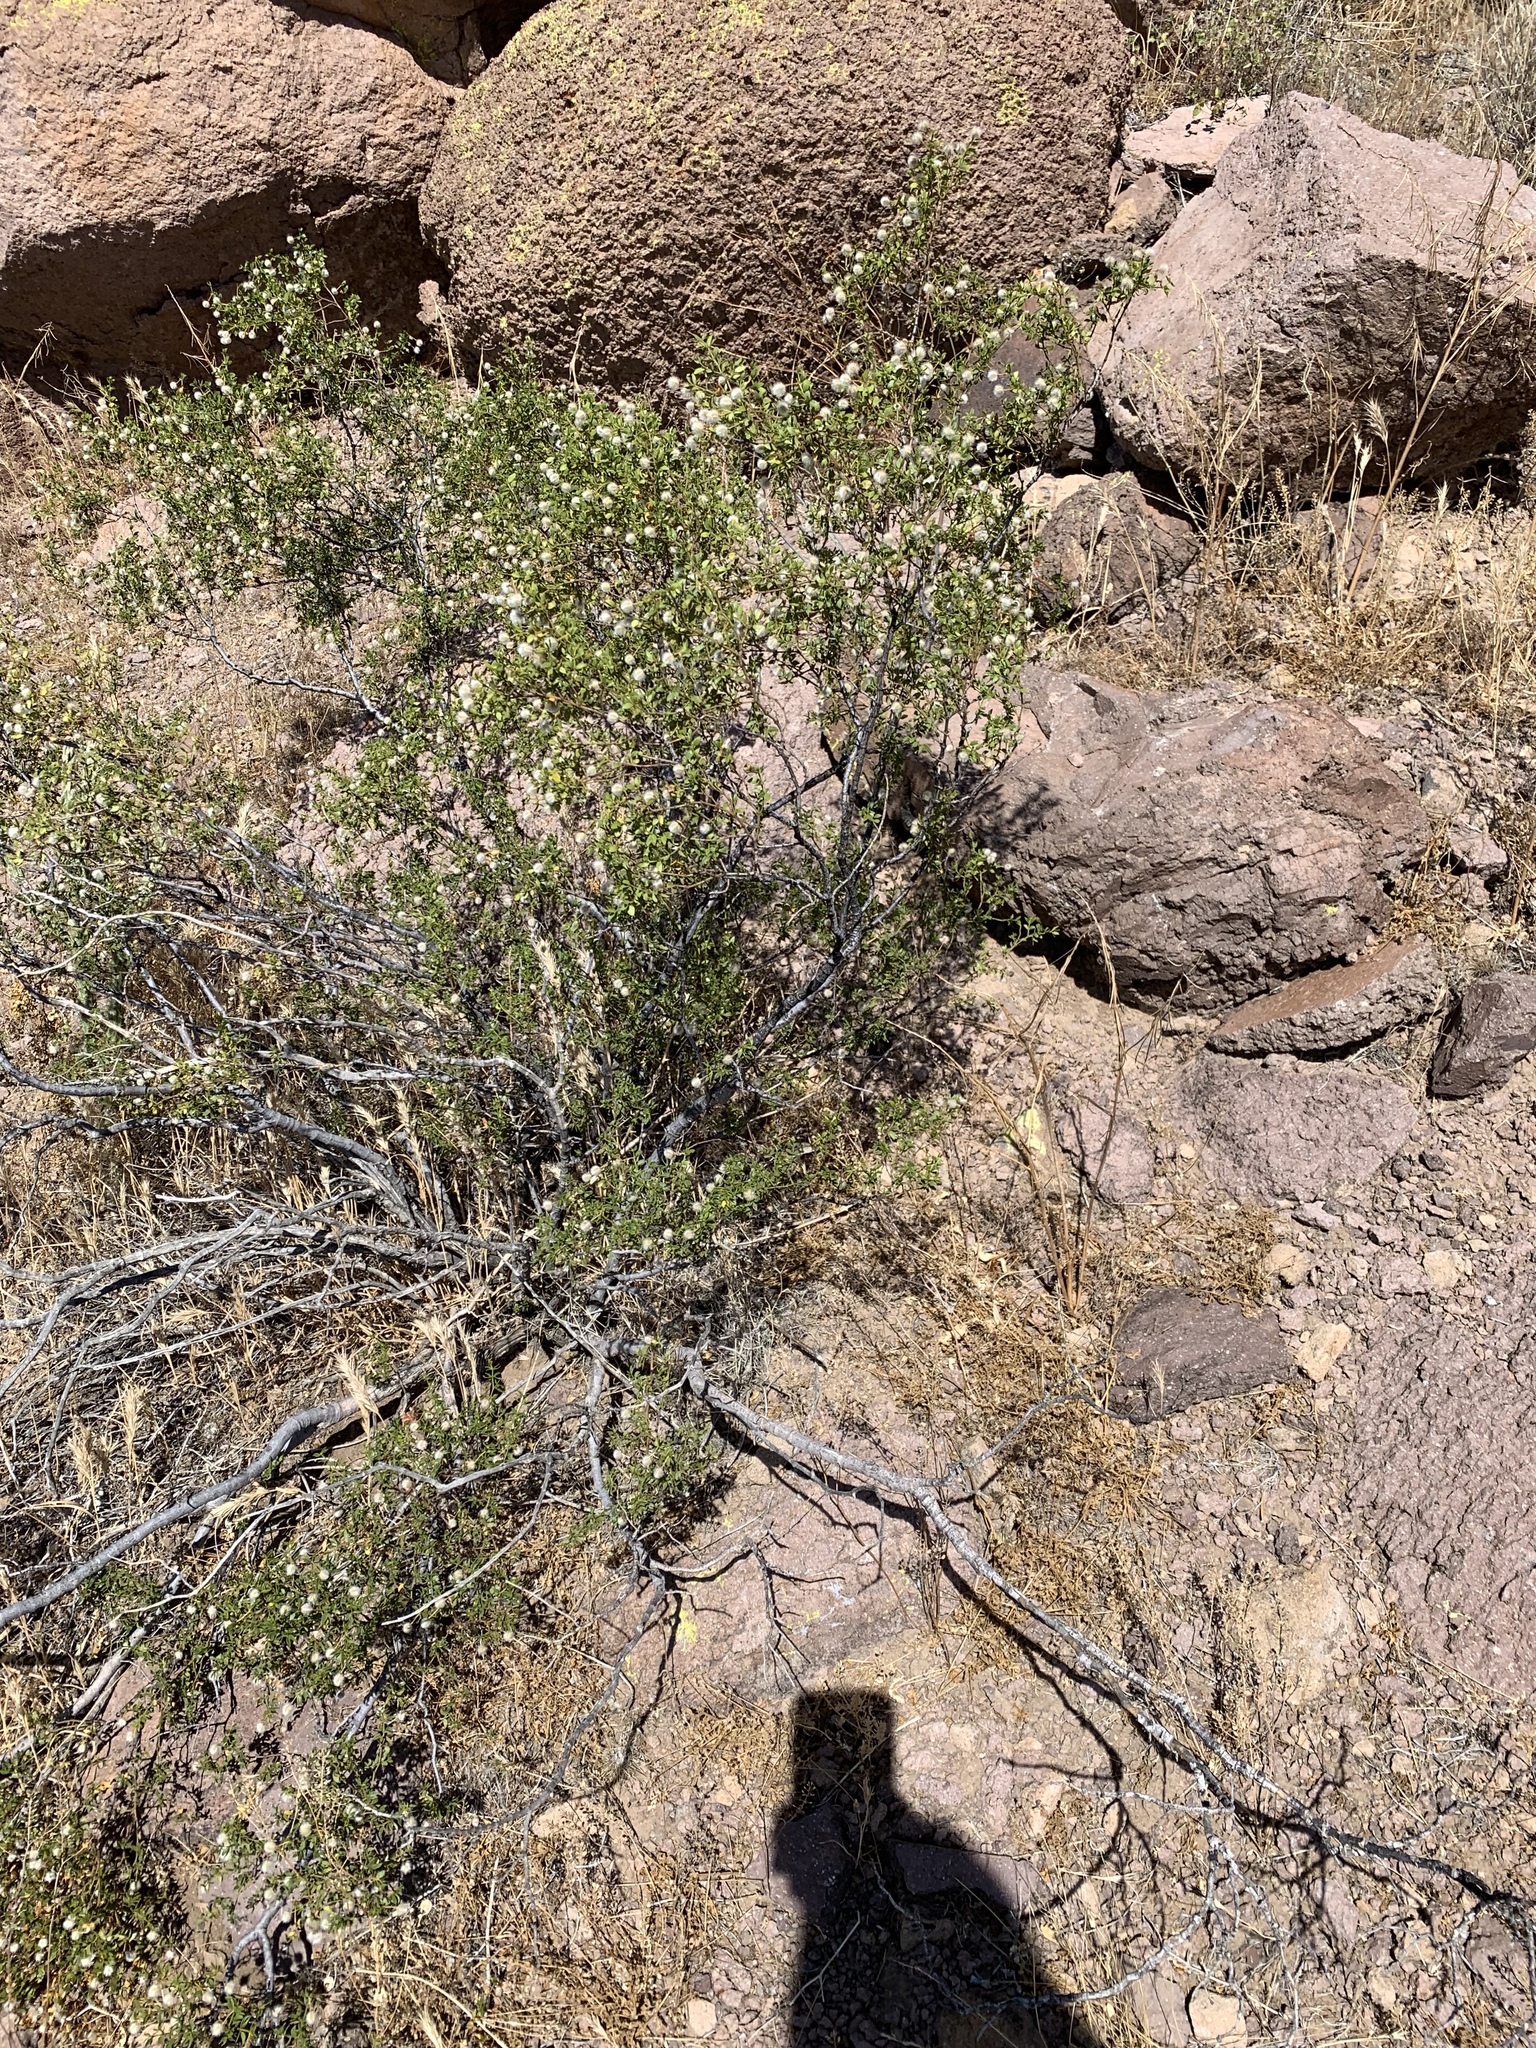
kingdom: Plantae
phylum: Tracheophyta
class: Magnoliopsida
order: Zygophyllales
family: Zygophyllaceae
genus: Larrea
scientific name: Larrea tridentata
